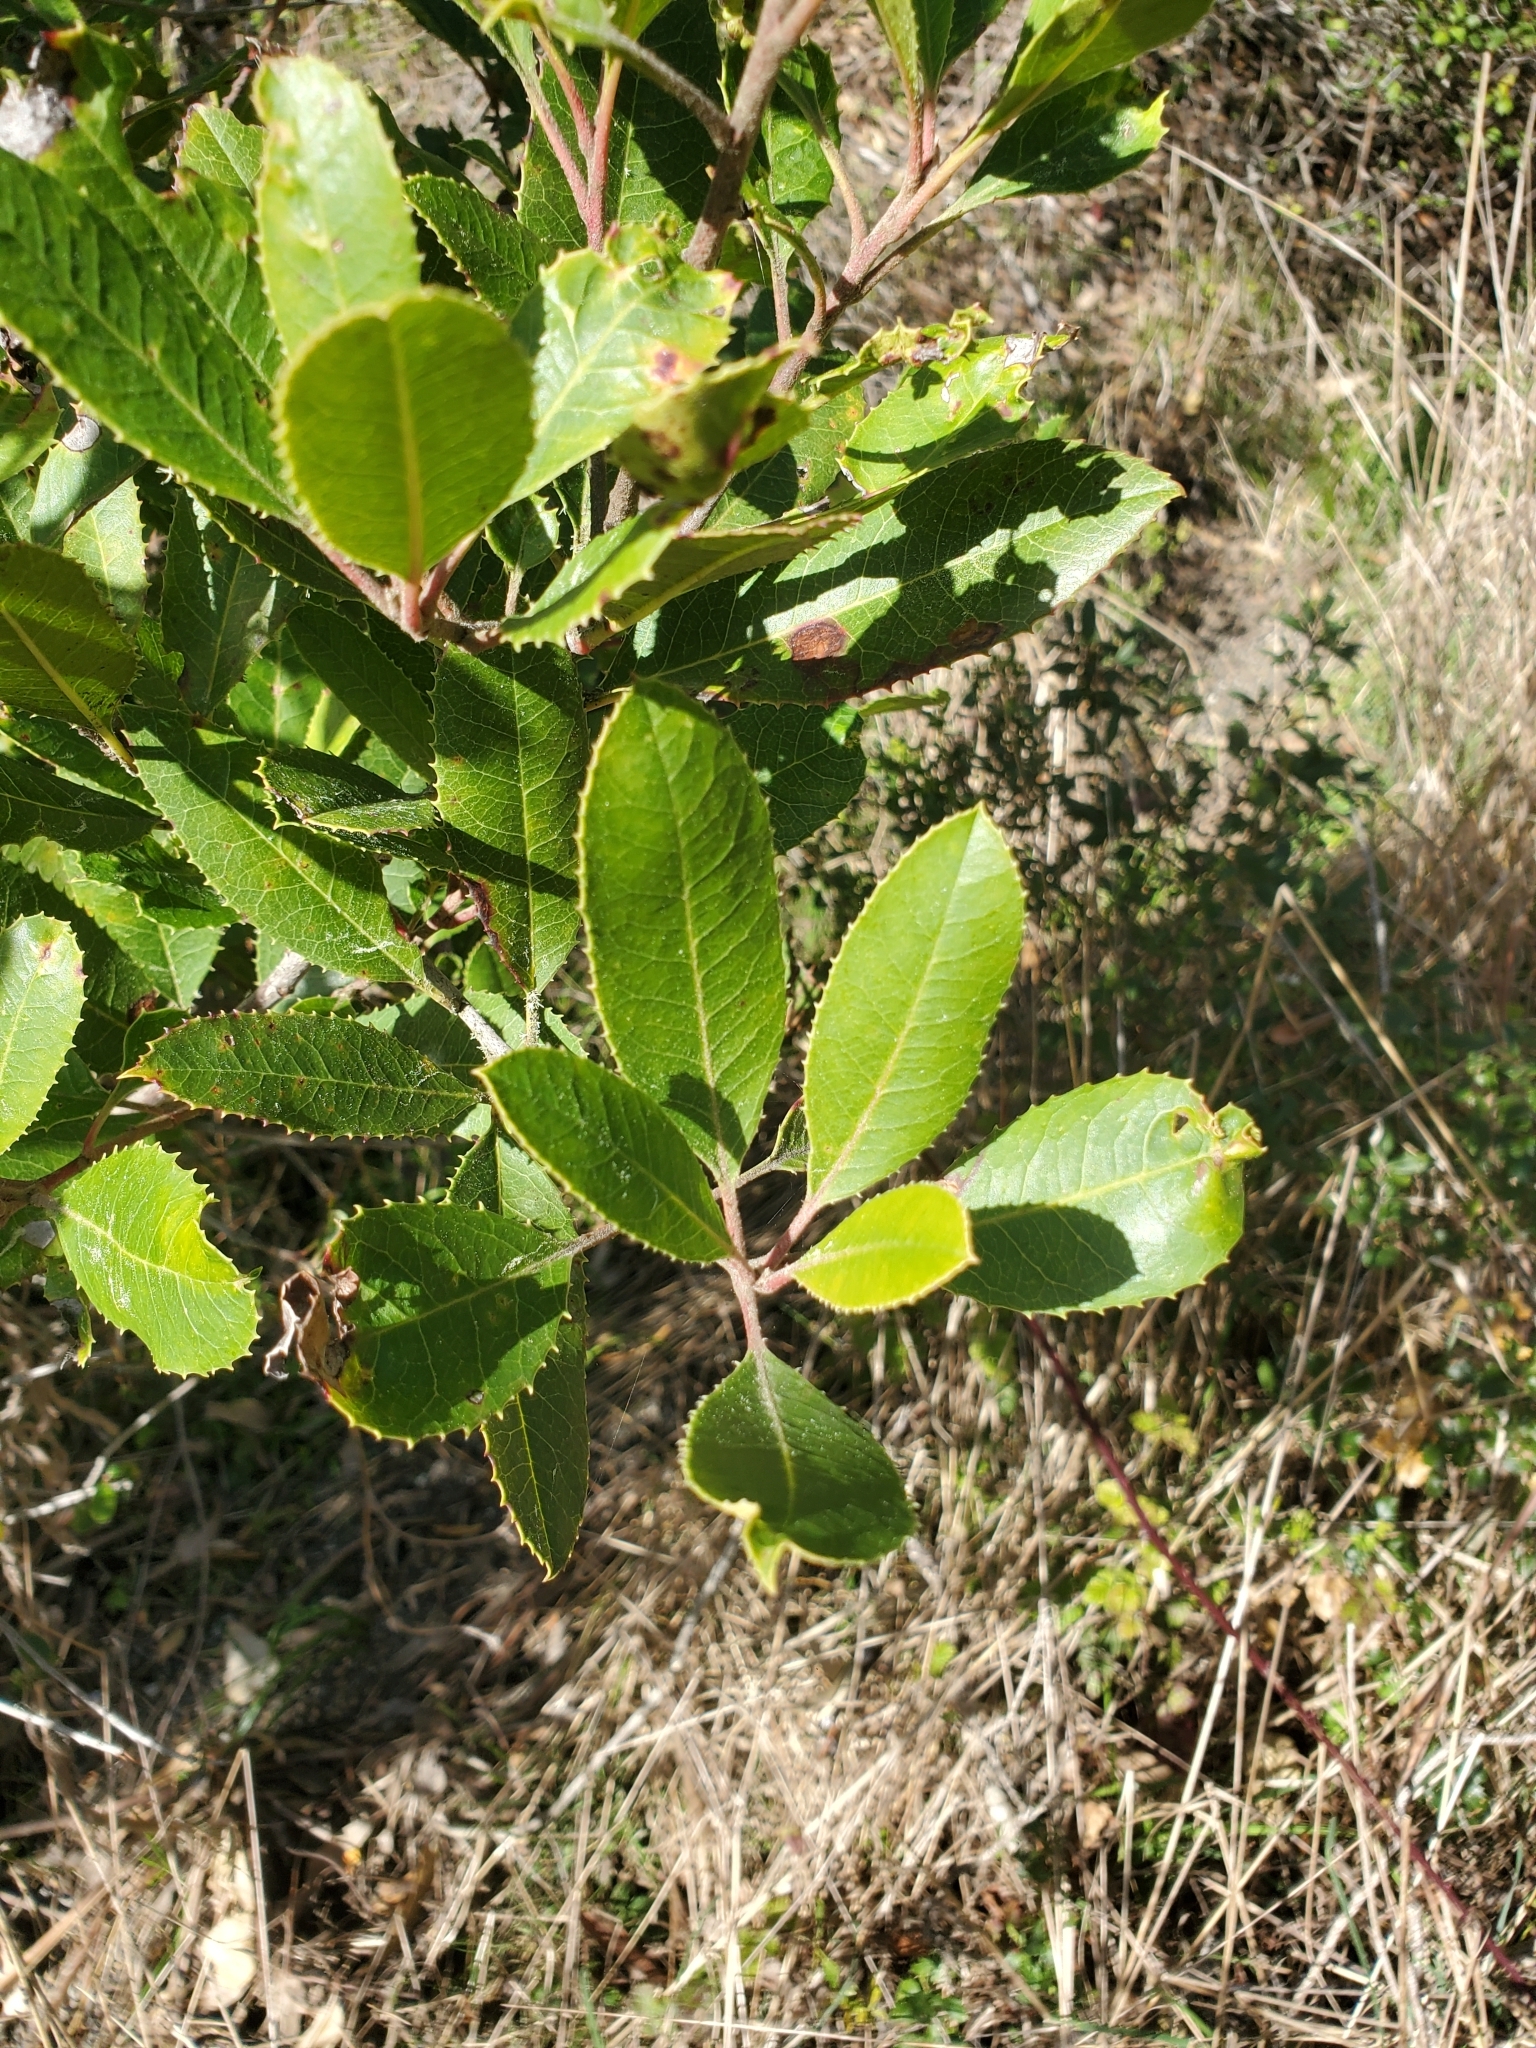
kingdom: Plantae
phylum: Tracheophyta
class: Magnoliopsida
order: Rosales
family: Rosaceae
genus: Heteromeles
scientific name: Heteromeles arbutifolia
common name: California-holly
